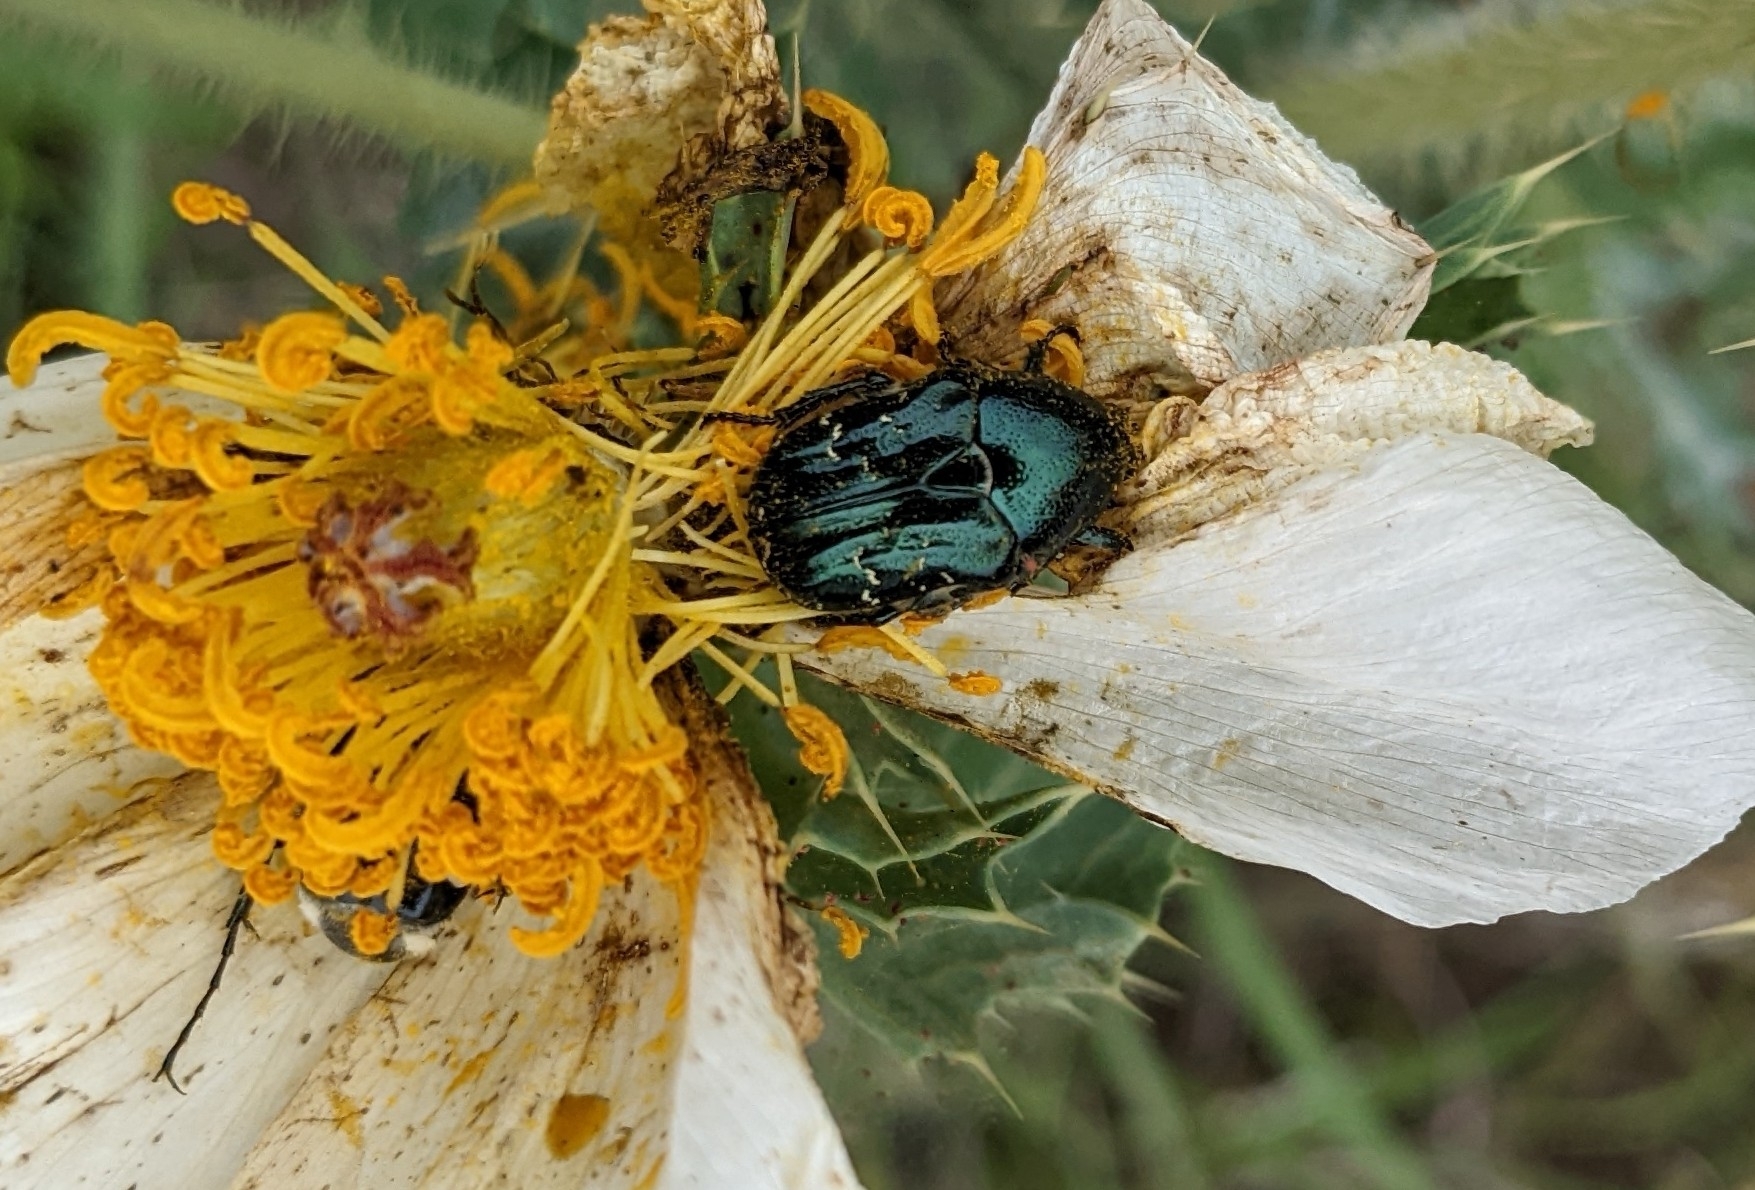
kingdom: Animalia
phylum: Arthropoda
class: Insecta
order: Coleoptera
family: Scarabaeidae
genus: Euphoria
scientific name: Euphoria sepulcralis
